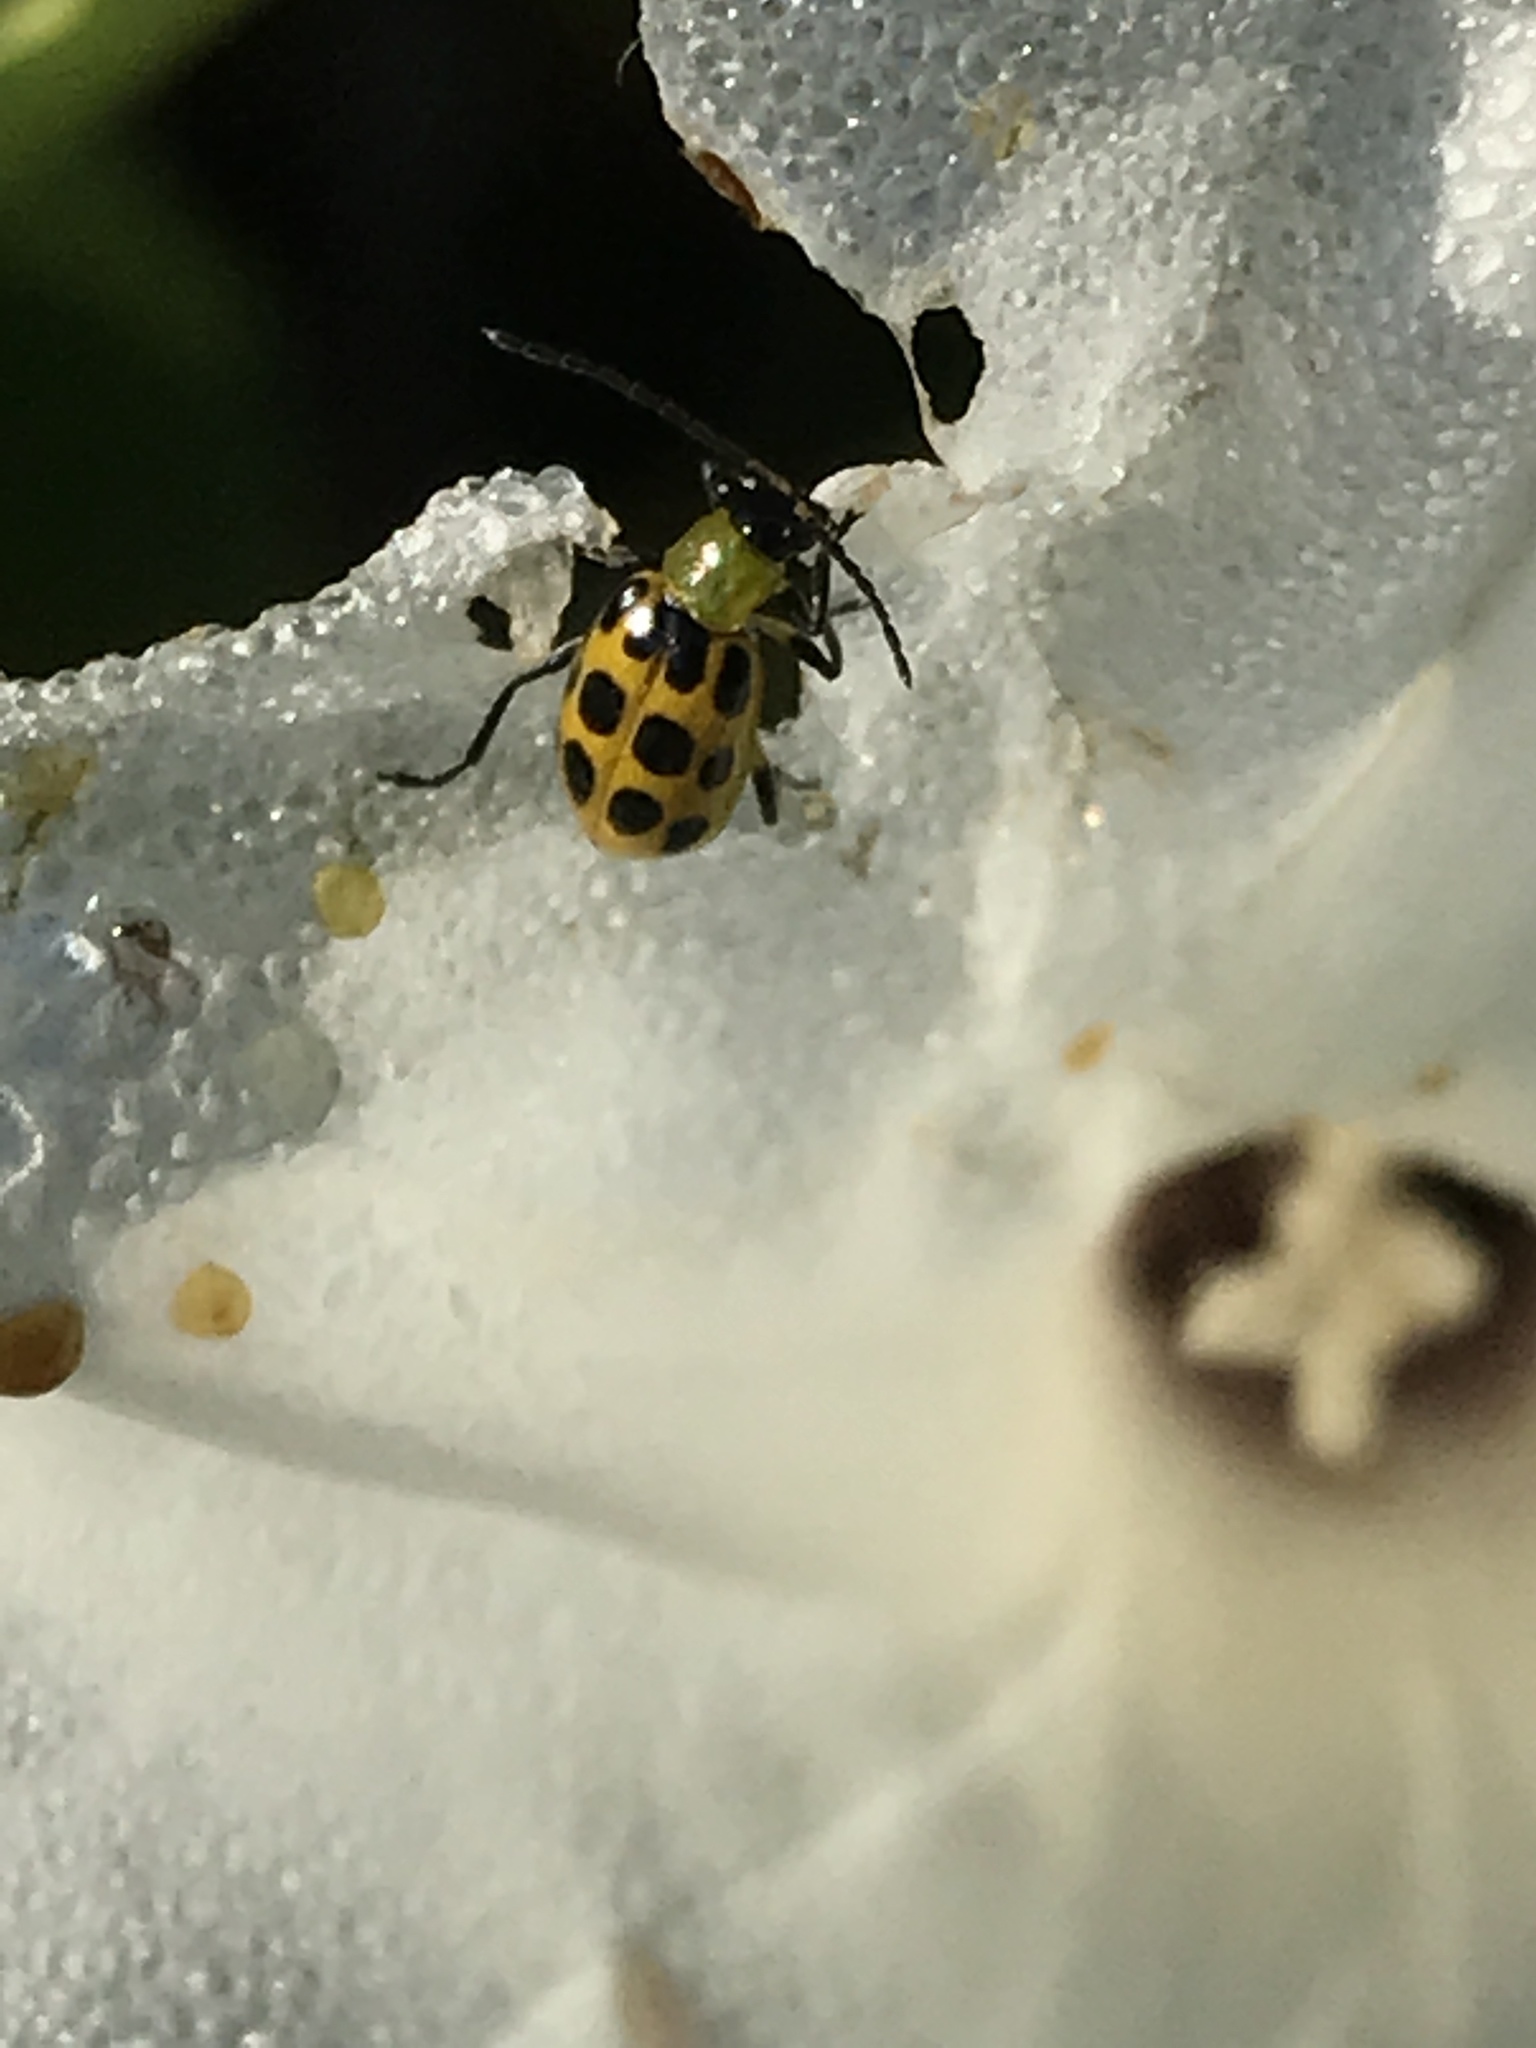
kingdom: Animalia
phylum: Arthropoda
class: Insecta
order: Coleoptera
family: Chrysomelidae
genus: Diabrotica
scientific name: Diabrotica undecimpunctata
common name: Spotted cucumber beetle
